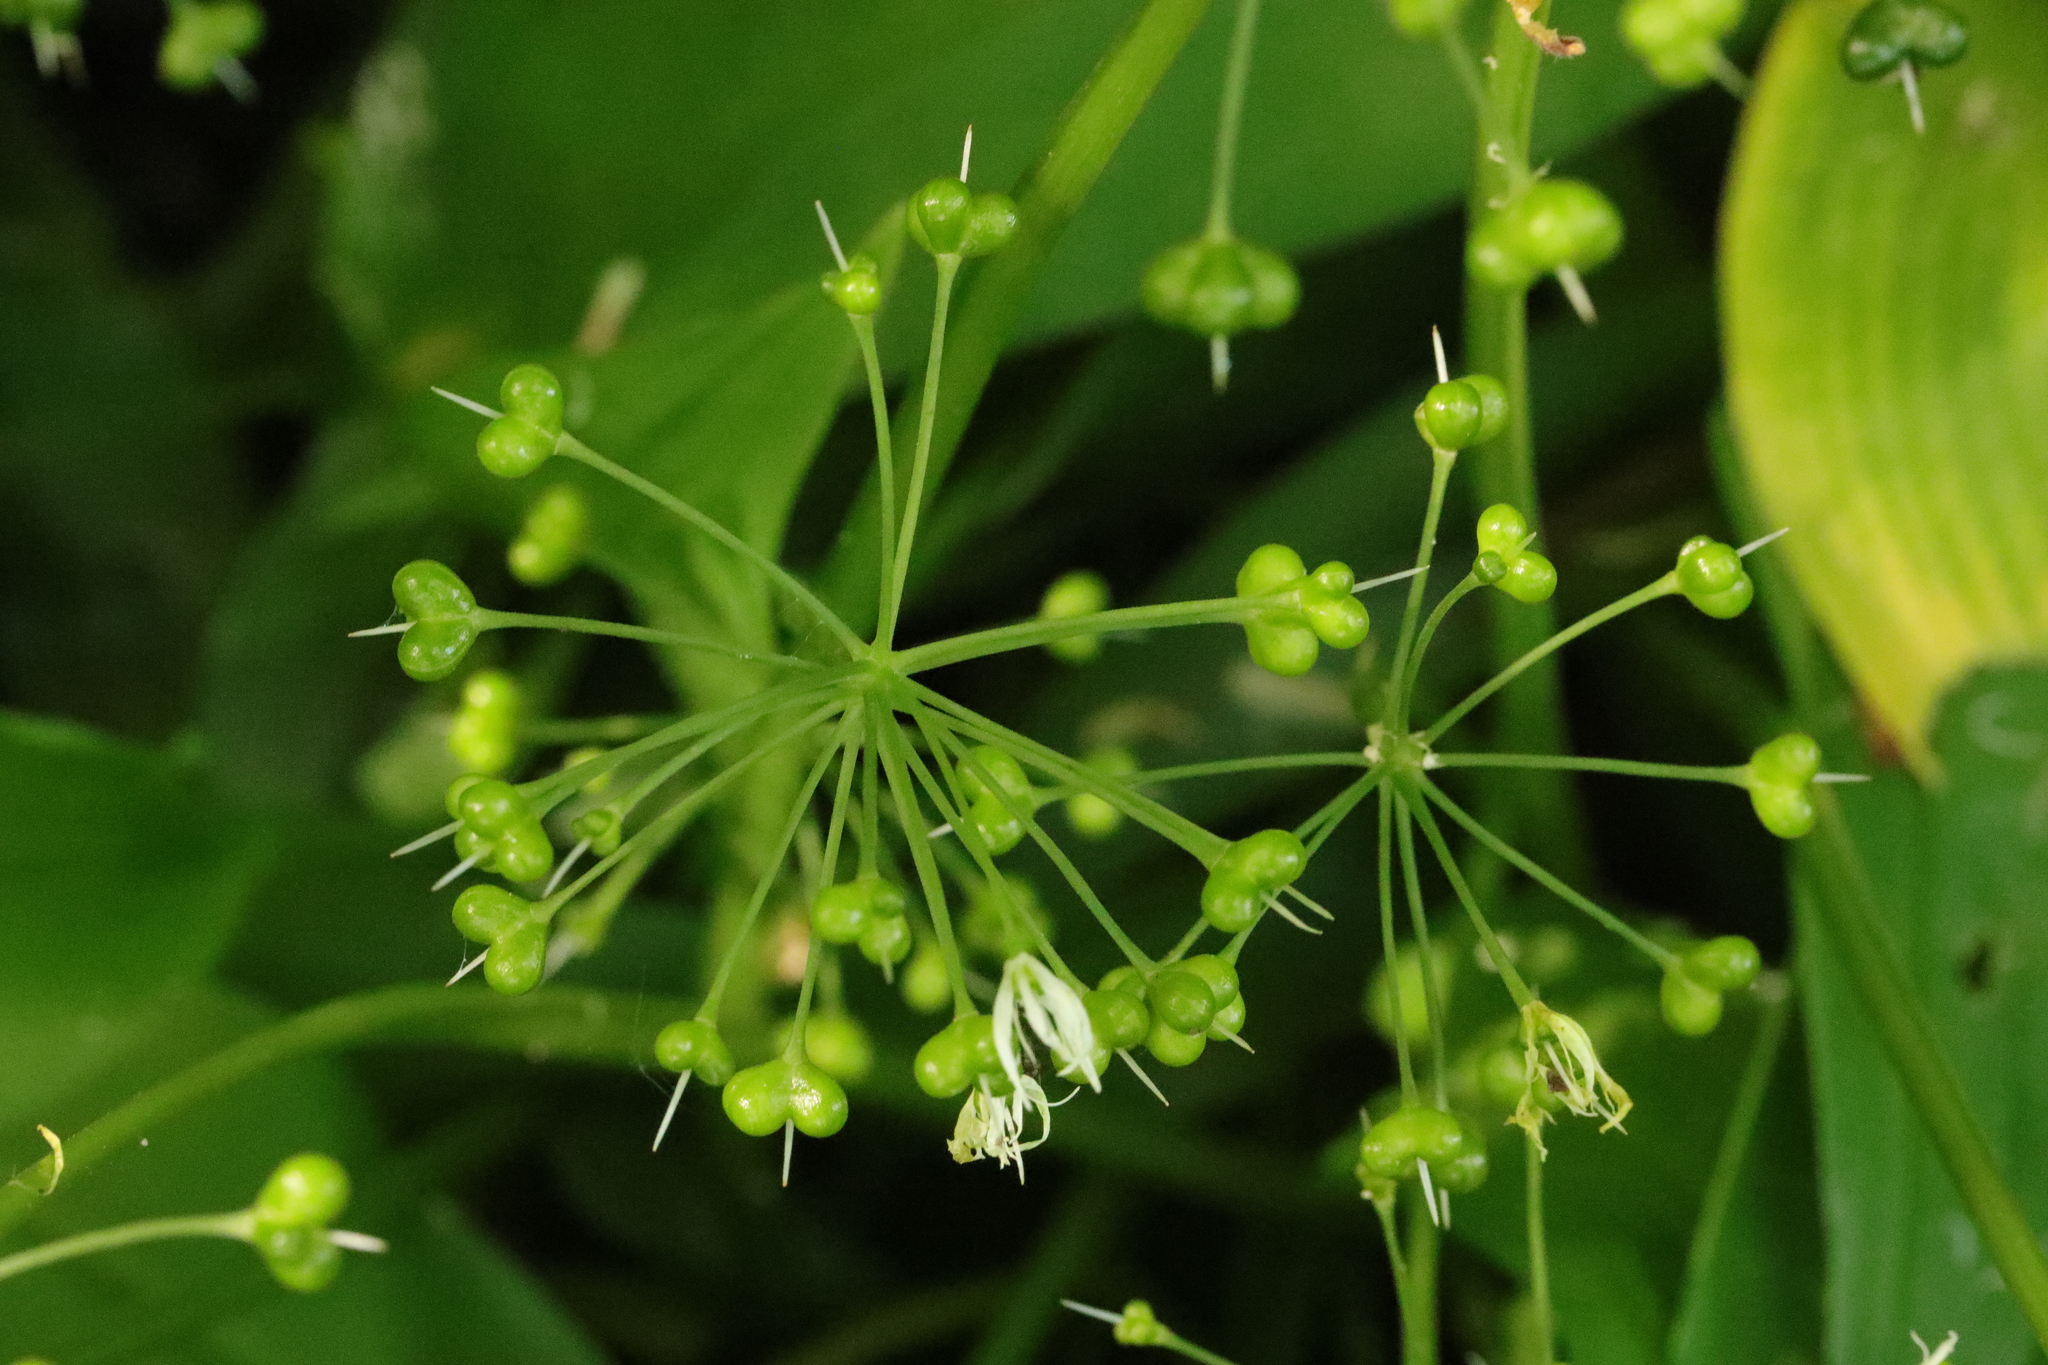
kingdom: Plantae
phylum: Tracheophyta
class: Liliopsida
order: Asparagales
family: Amaryllidaceae
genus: Allium
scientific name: Allium ursinum
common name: Ramsons
